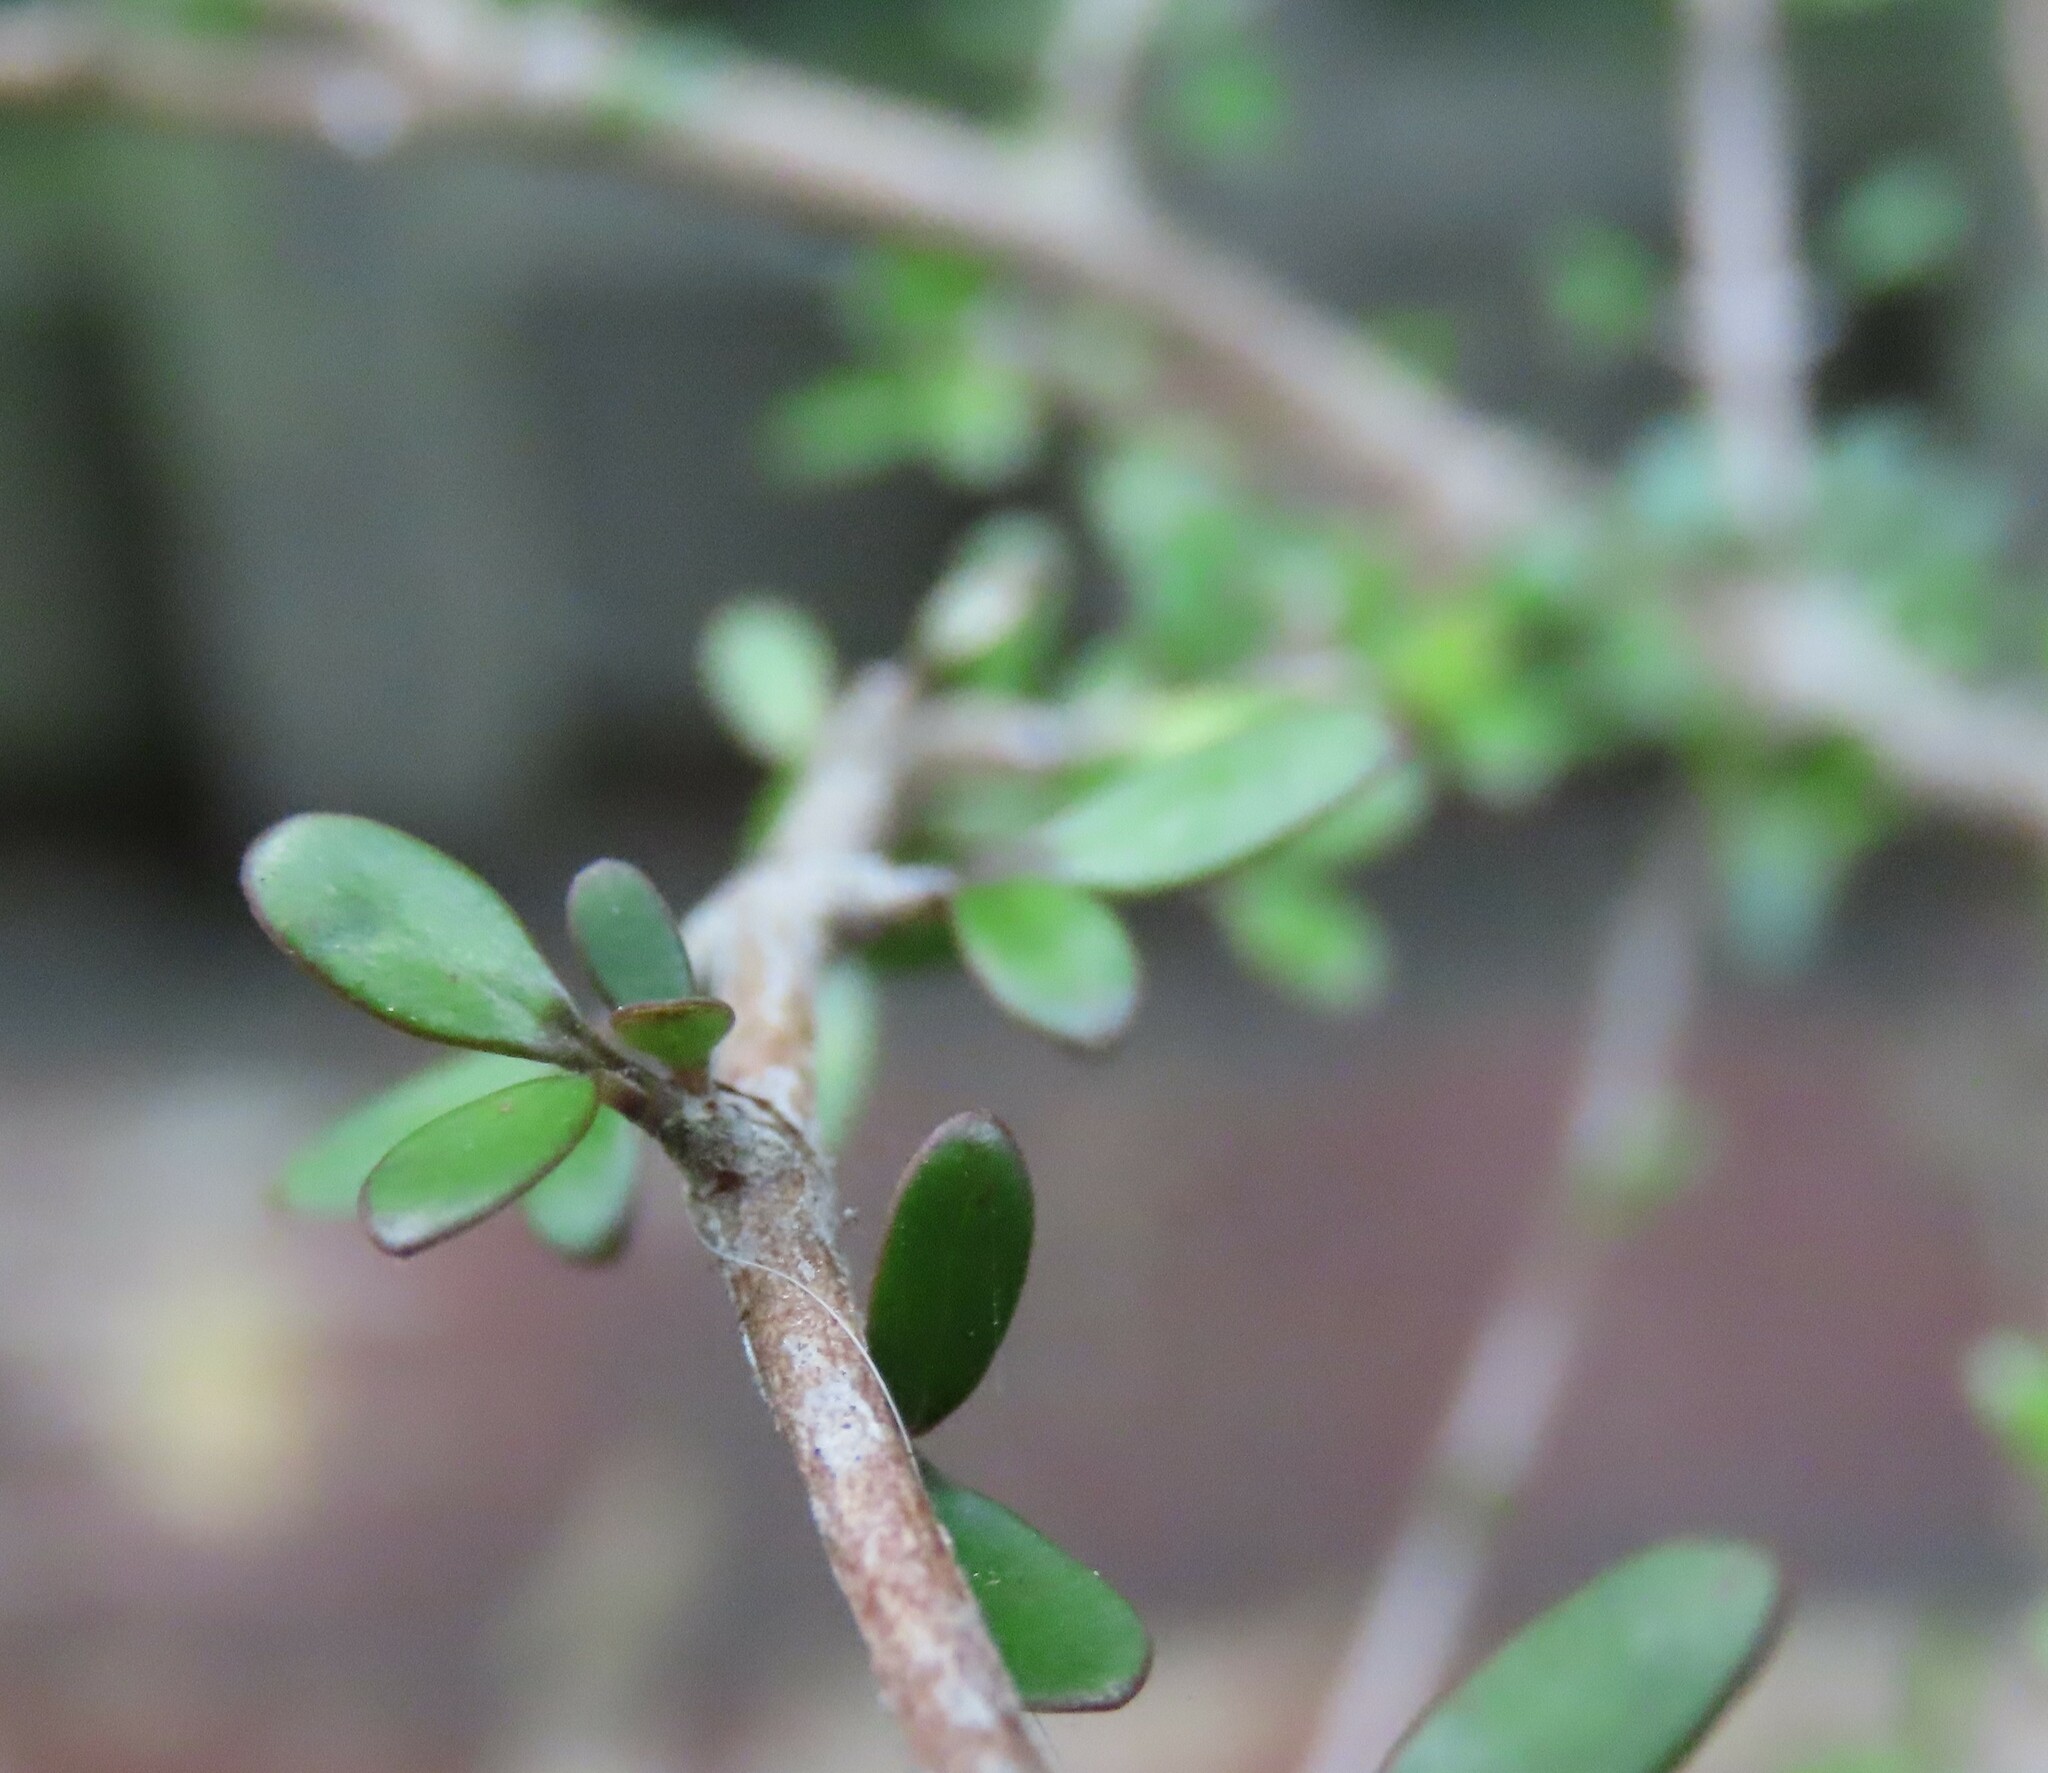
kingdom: Plantae
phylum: Tracheophyta
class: Magnoliopsida
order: Gentianales
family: Rubiaceae
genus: Coprosma
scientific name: Coprosma propinqua
